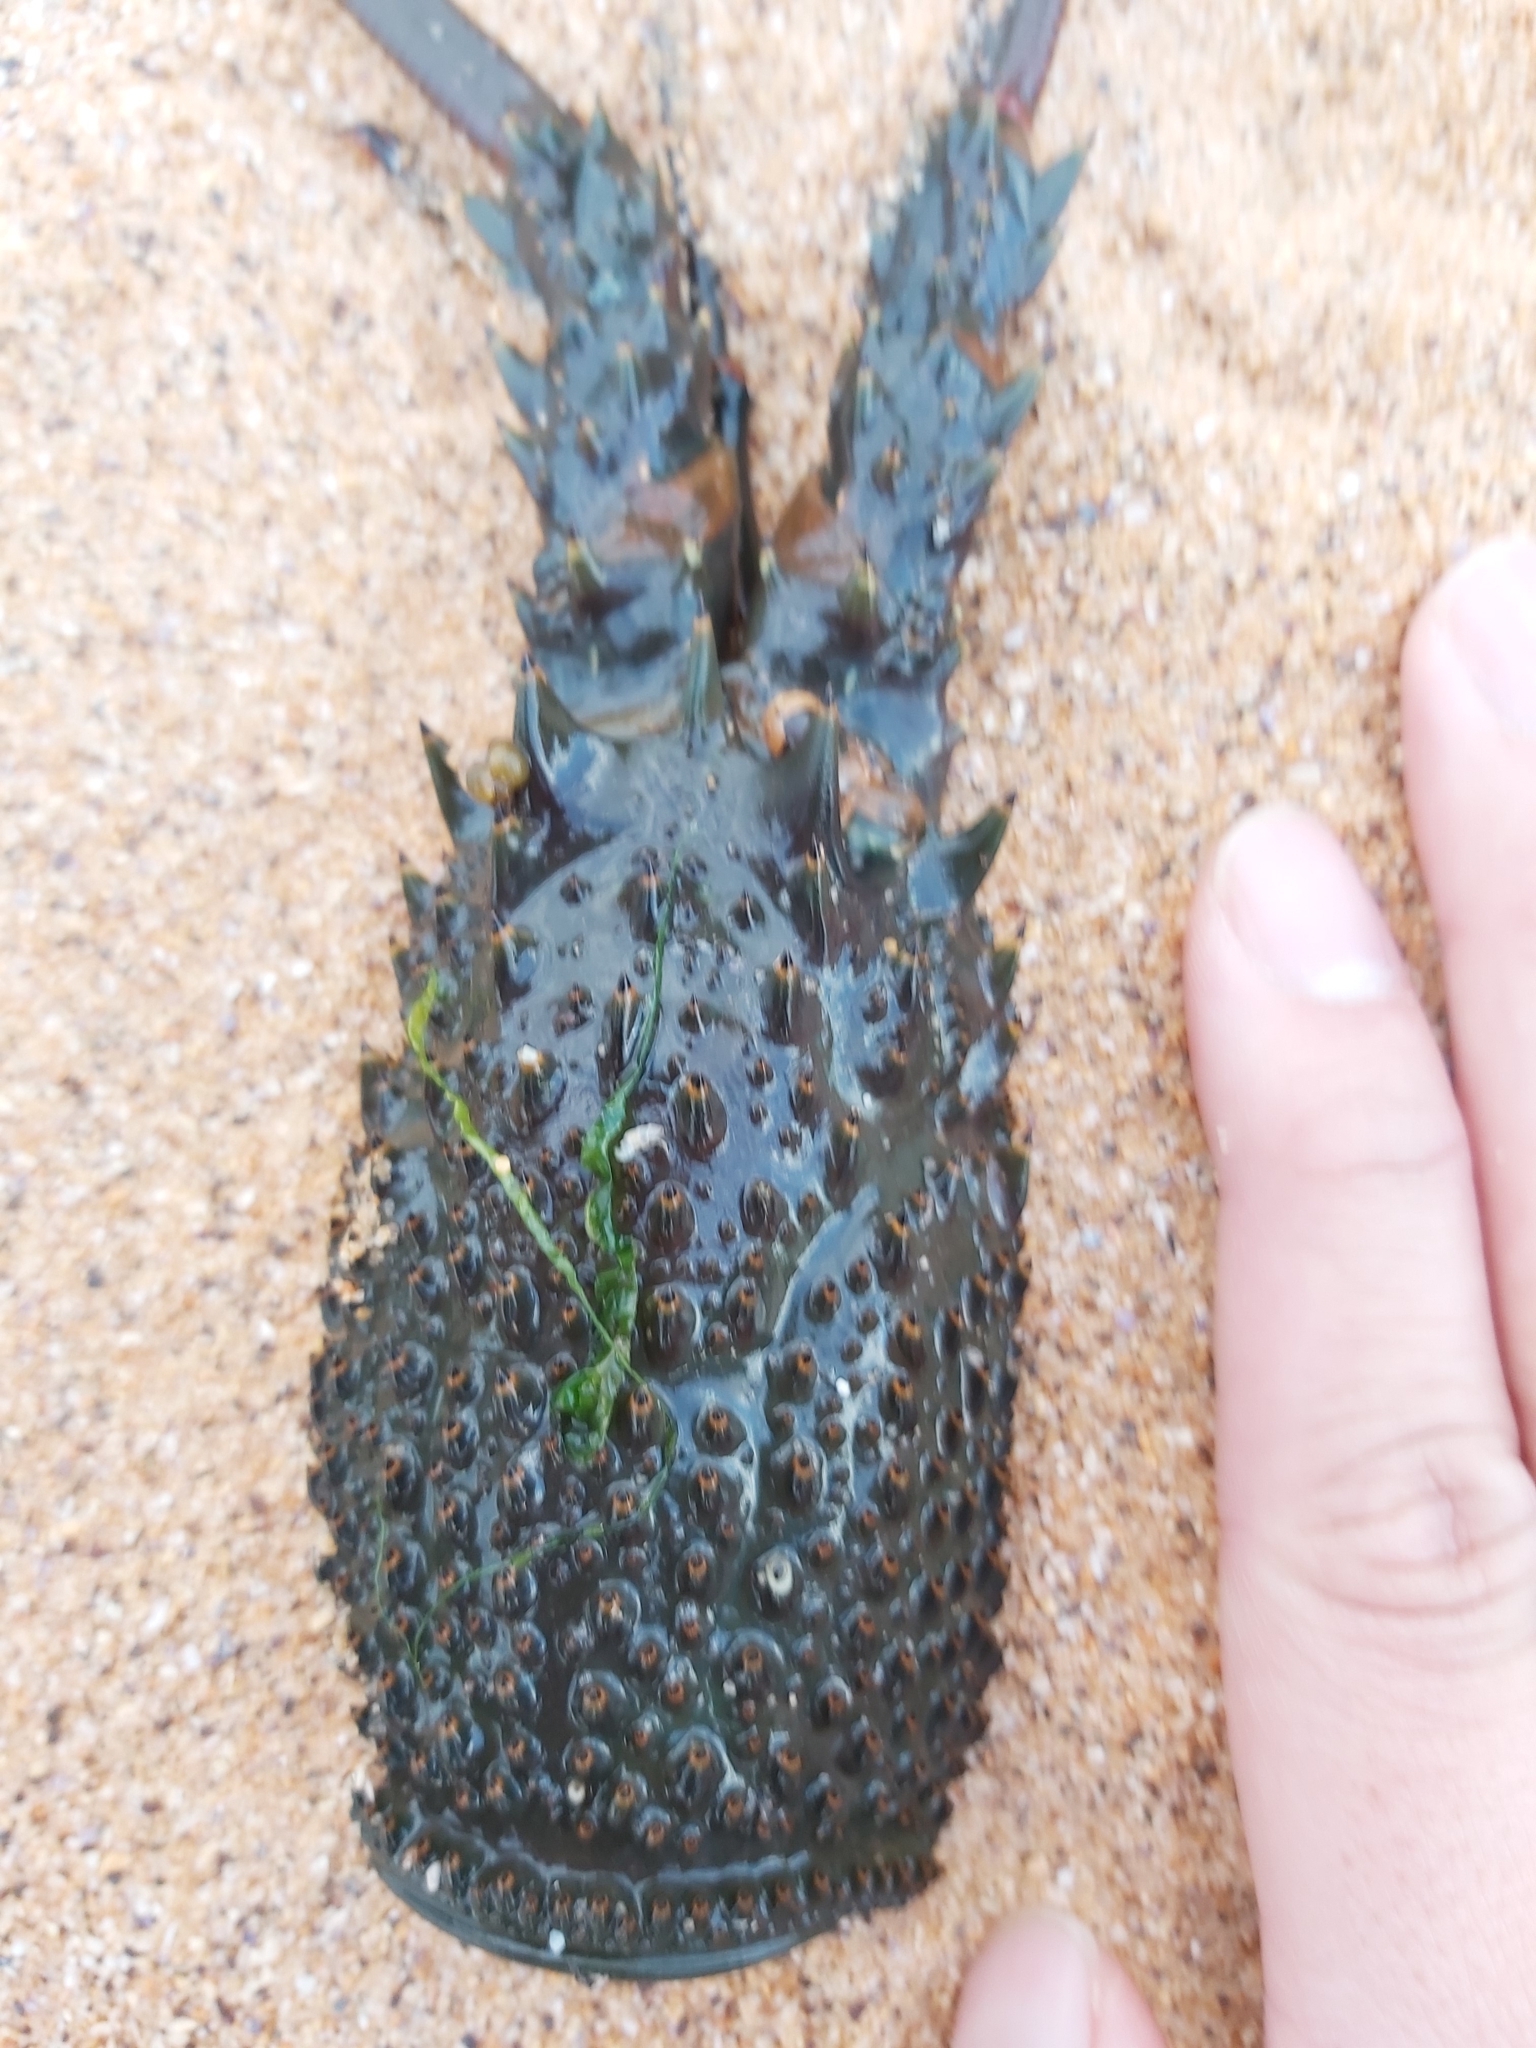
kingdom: Animalia
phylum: Arthropoda
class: Malacostraca
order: Decapoda
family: Palinuridae
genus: Sagmariasus
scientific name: Sagmariasus verreauxi
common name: Green rock lobster
